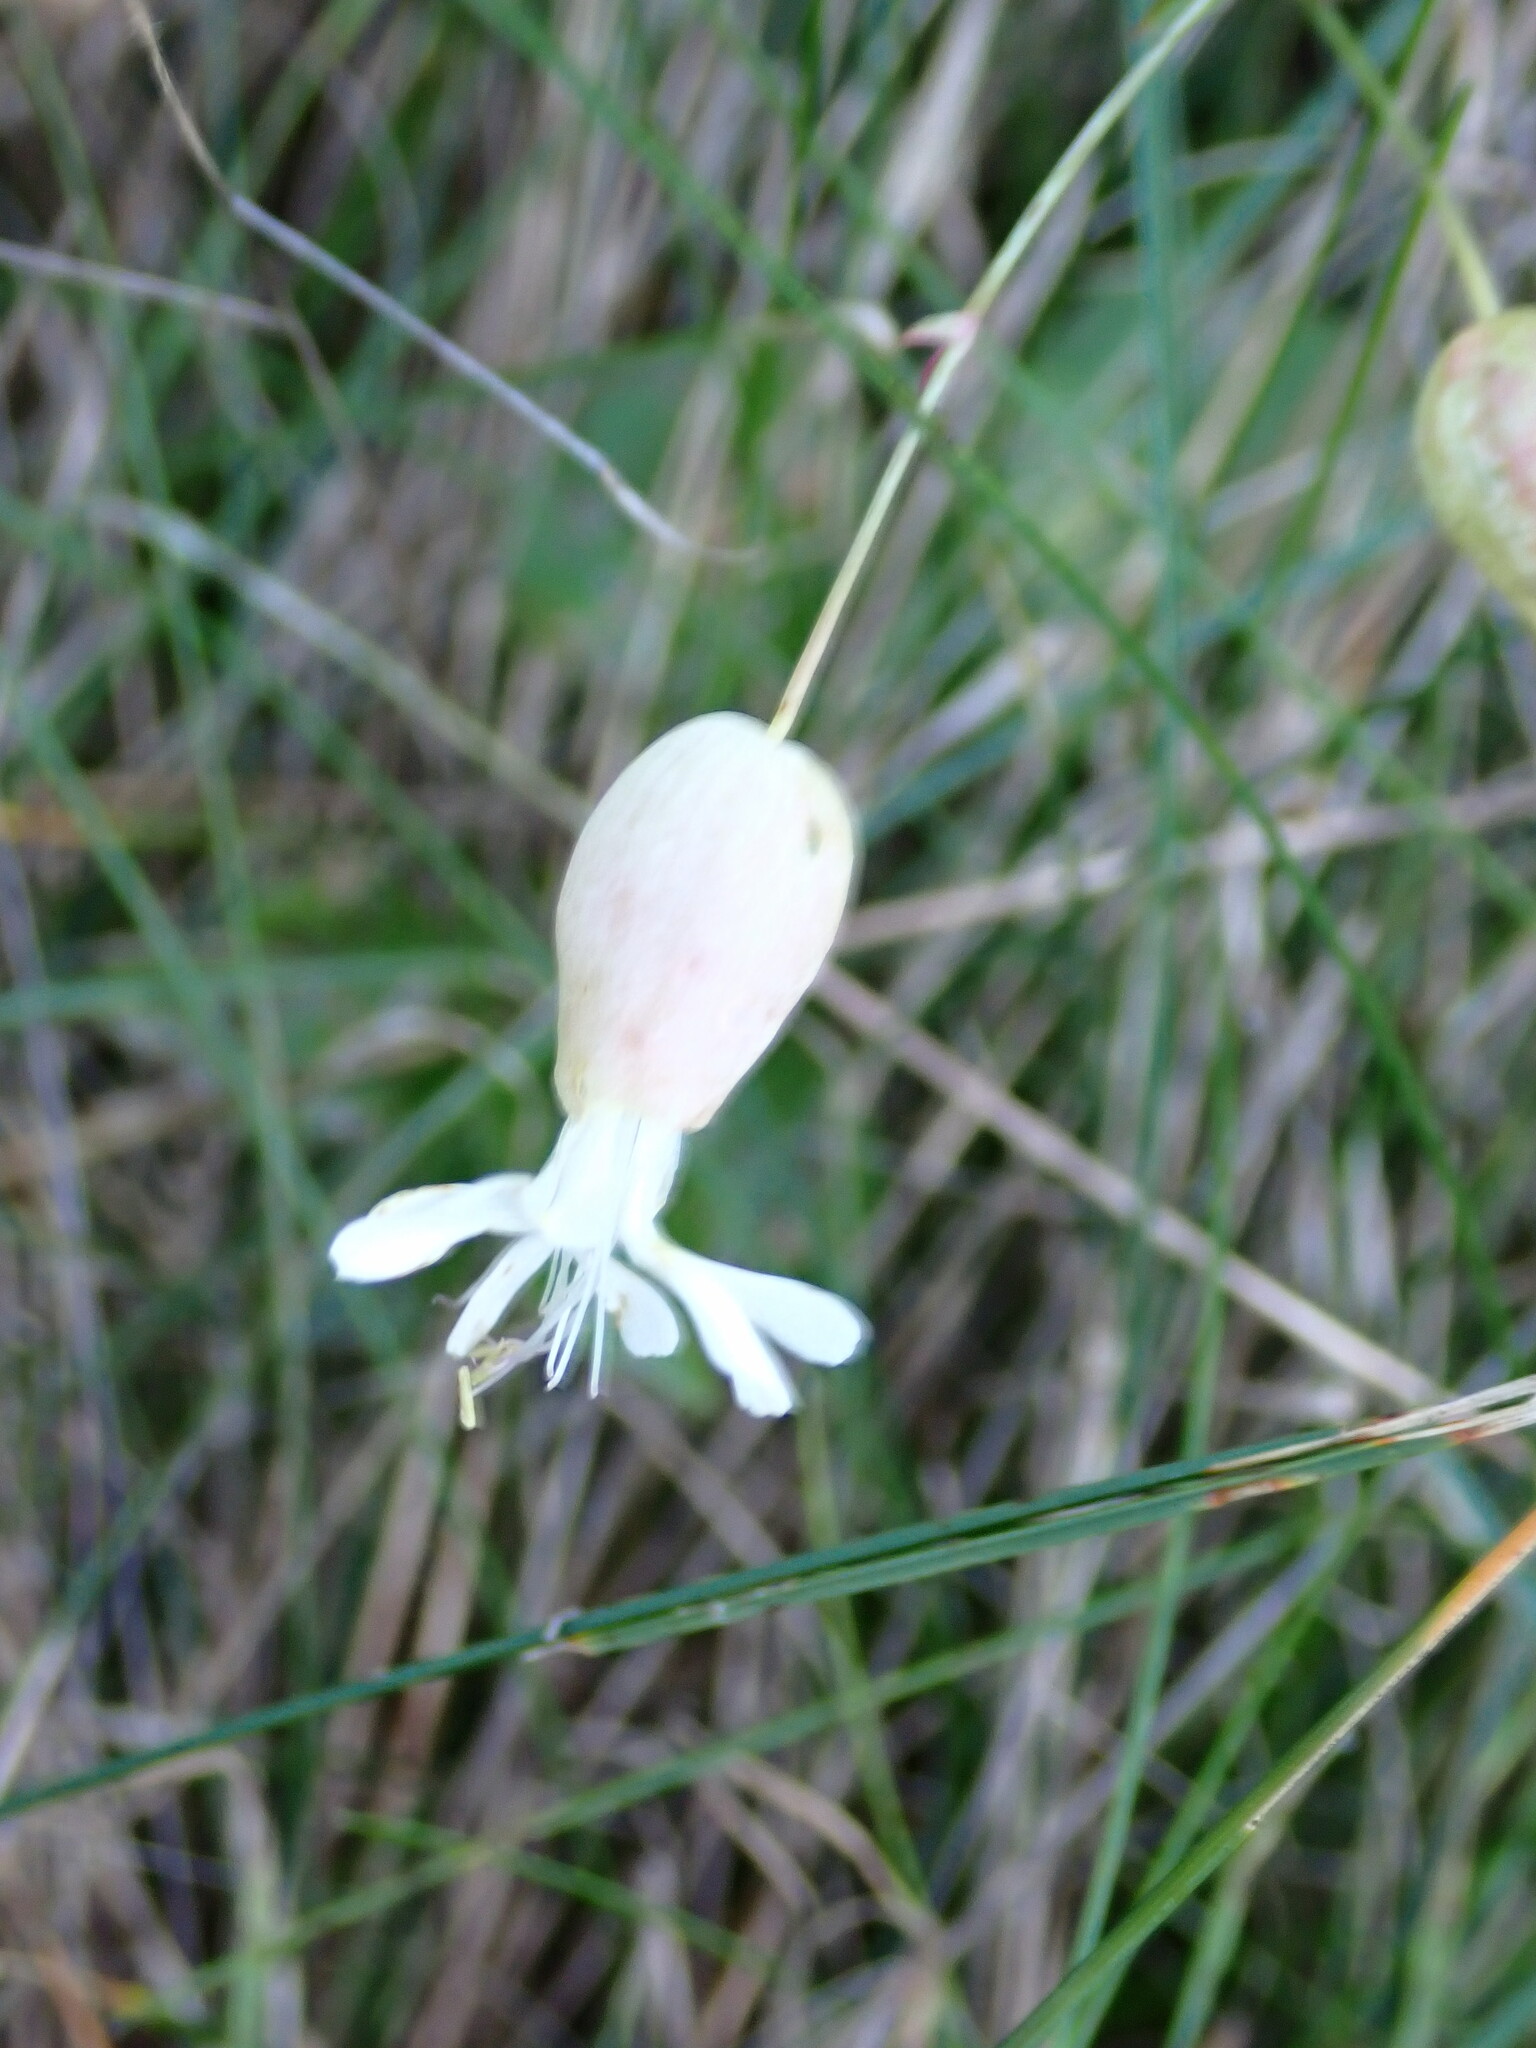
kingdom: Plantae
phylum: Tracheophyta
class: Magnoliopsida
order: Caryophyllales
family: Caryophyllaceae
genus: Silene
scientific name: Silene vulgaris
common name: Bladder campion
